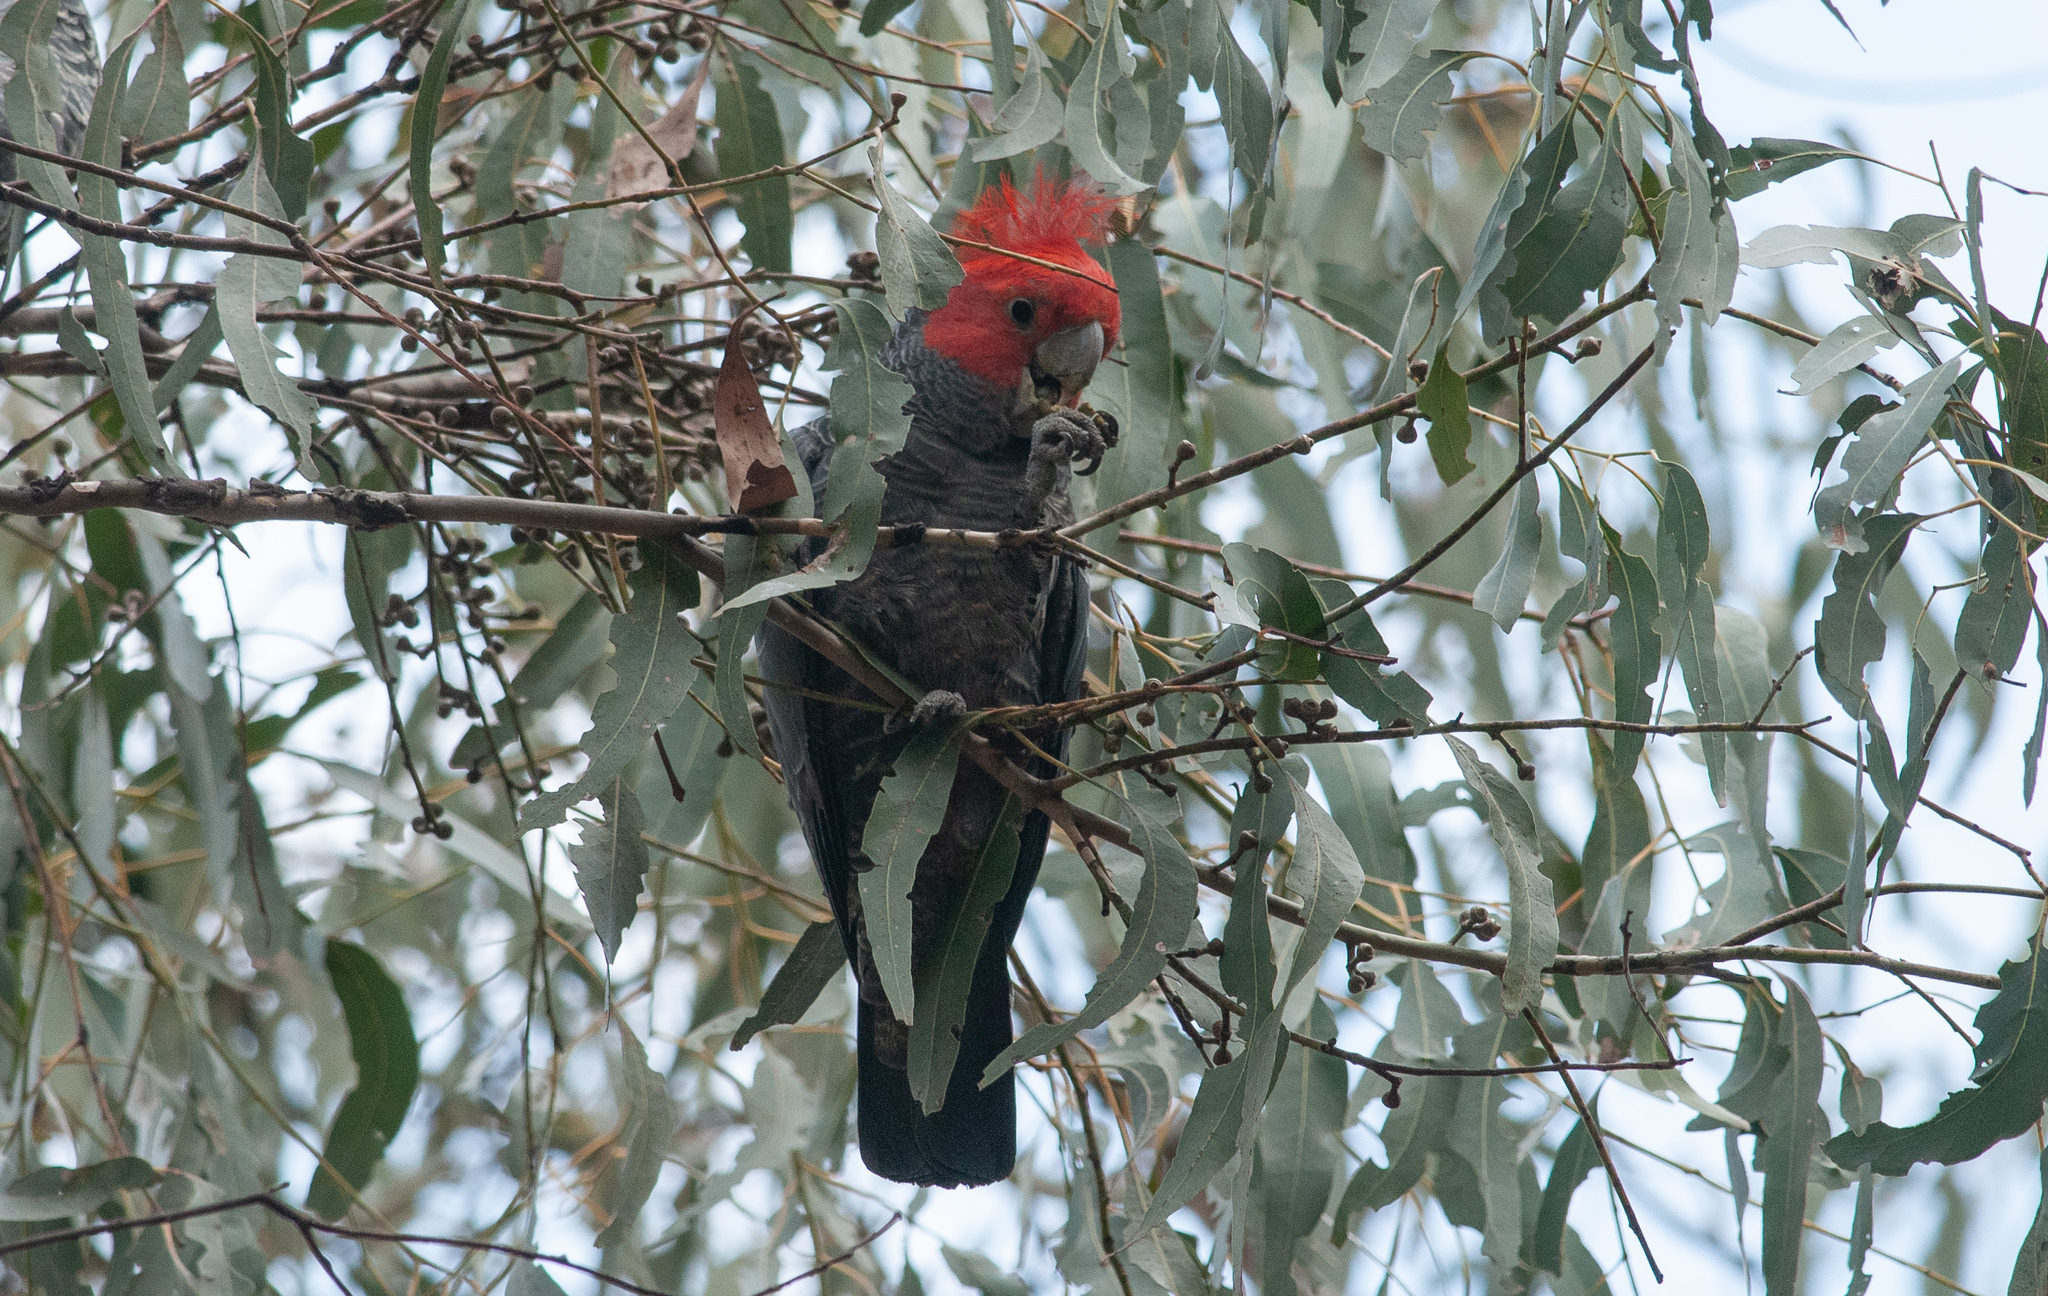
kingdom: Animalia
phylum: Chordata
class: Aves
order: Psittaciformes
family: Psittacidae
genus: Callocephalon
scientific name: Callocephalon fimbriatum
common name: Gang-gang cockatoo
